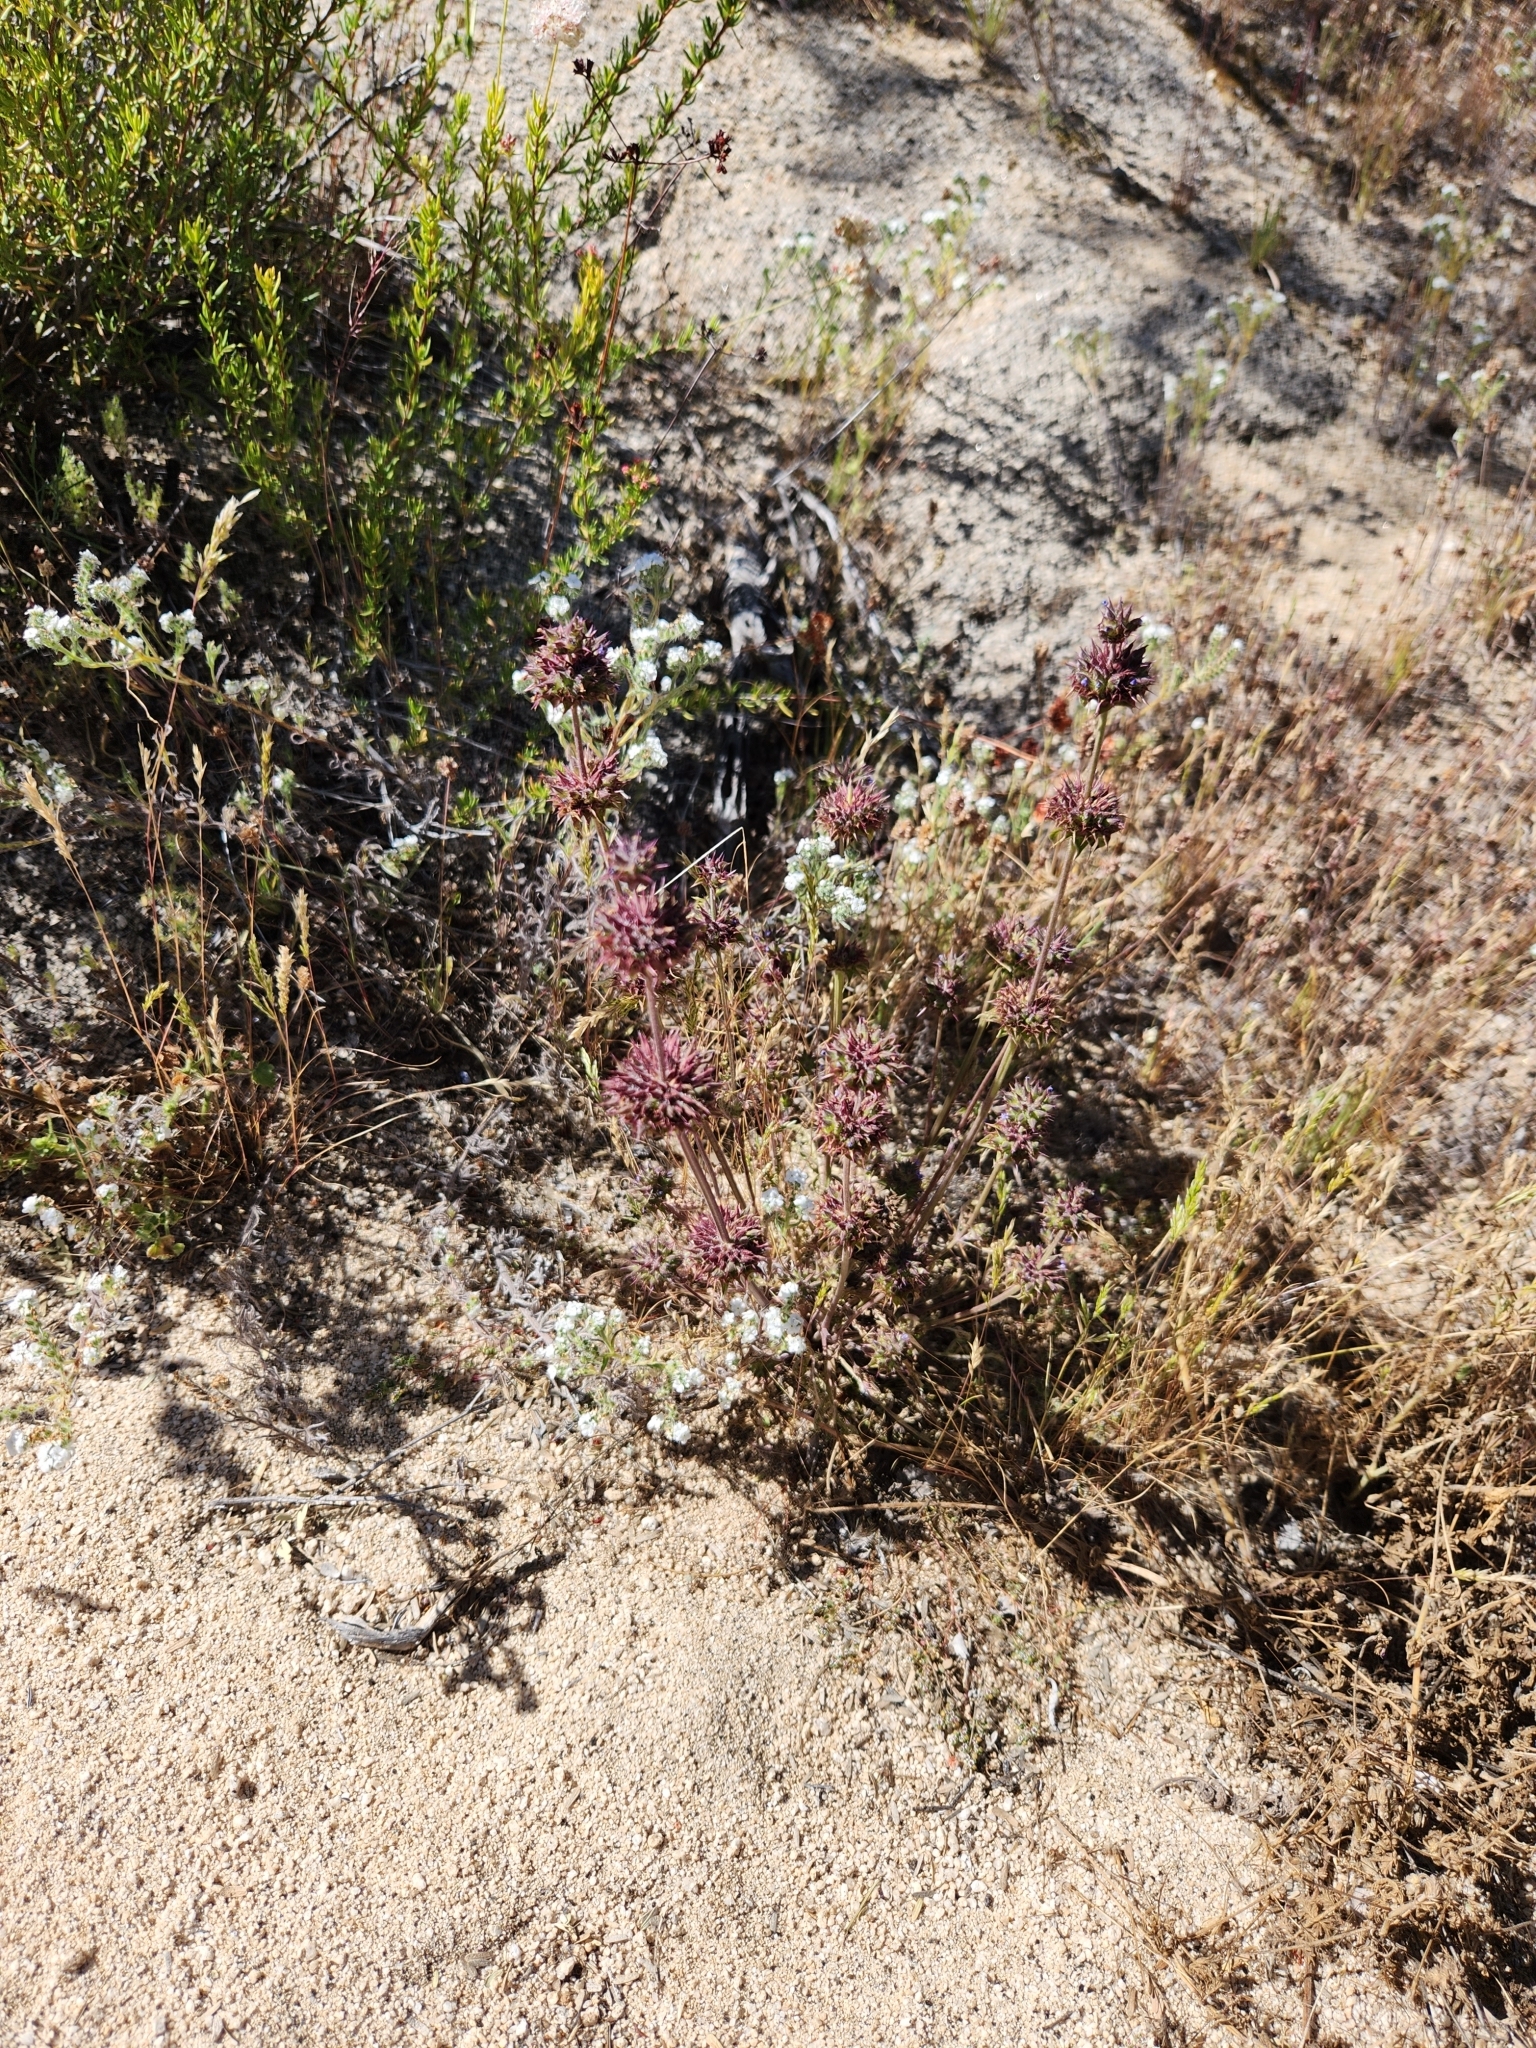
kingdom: Plantae
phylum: Tracheophyta
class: Magnoliopsida
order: Lamiales
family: Lamiaceae
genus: Salvia
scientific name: Salvia columbariae
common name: Chia
